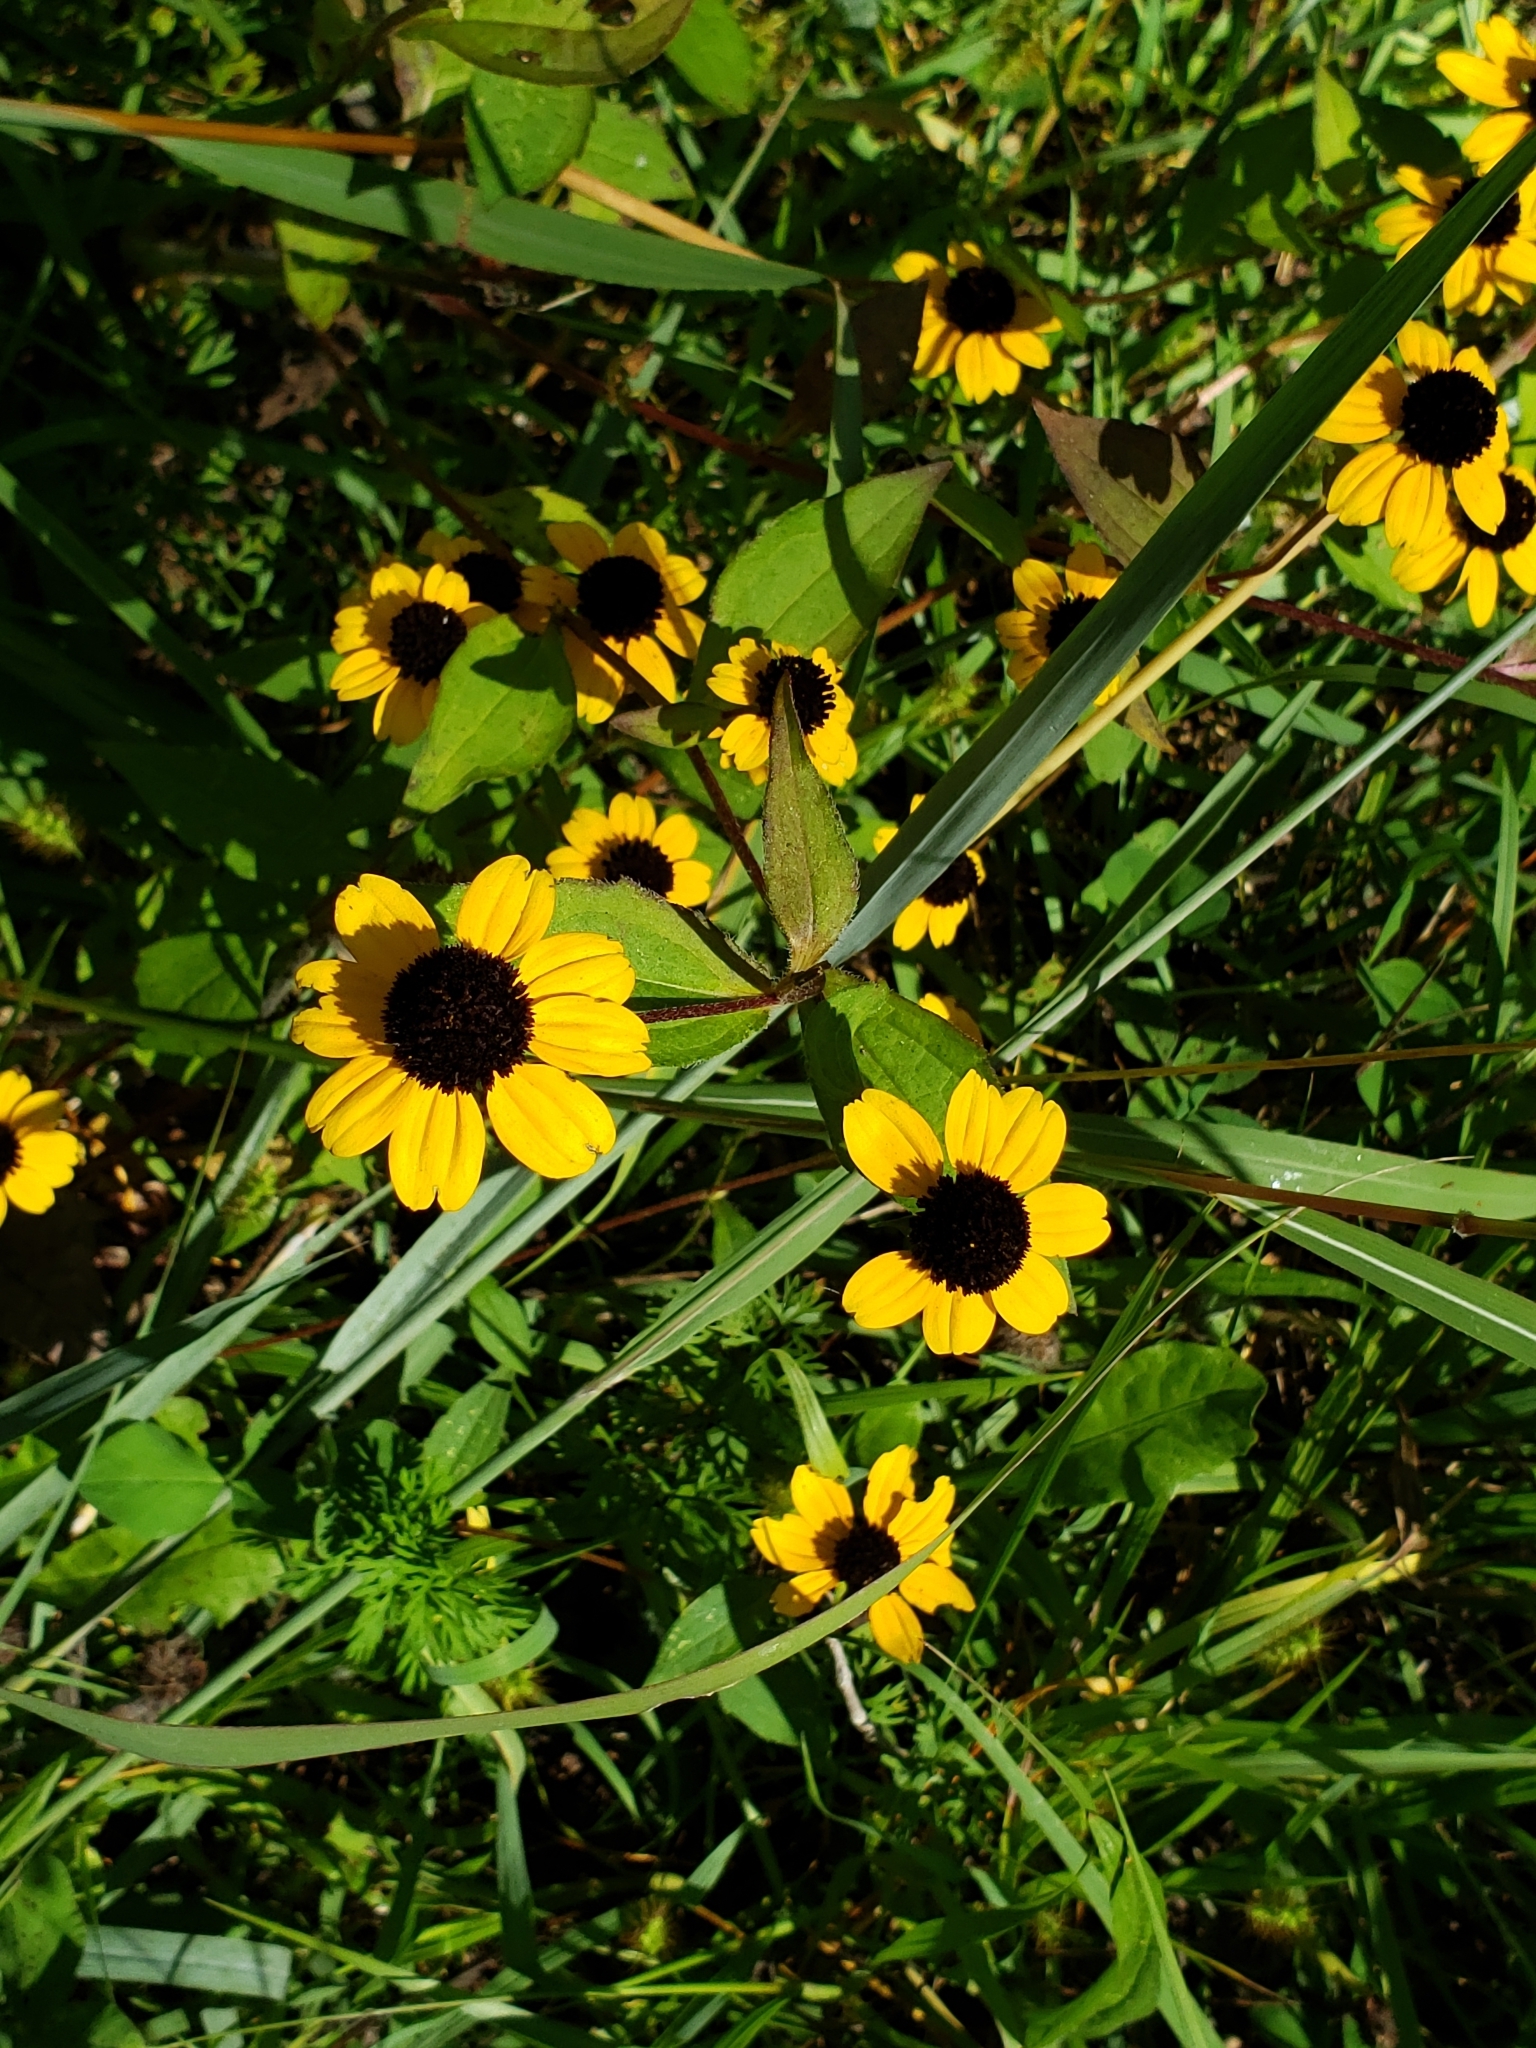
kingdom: Plantae
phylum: Tracheophyta
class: Magnoliopsida
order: Asterales
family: Asteraceae
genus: Rudbeckia
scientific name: Rudbeckia triloba
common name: Thin-leaved coneflower
